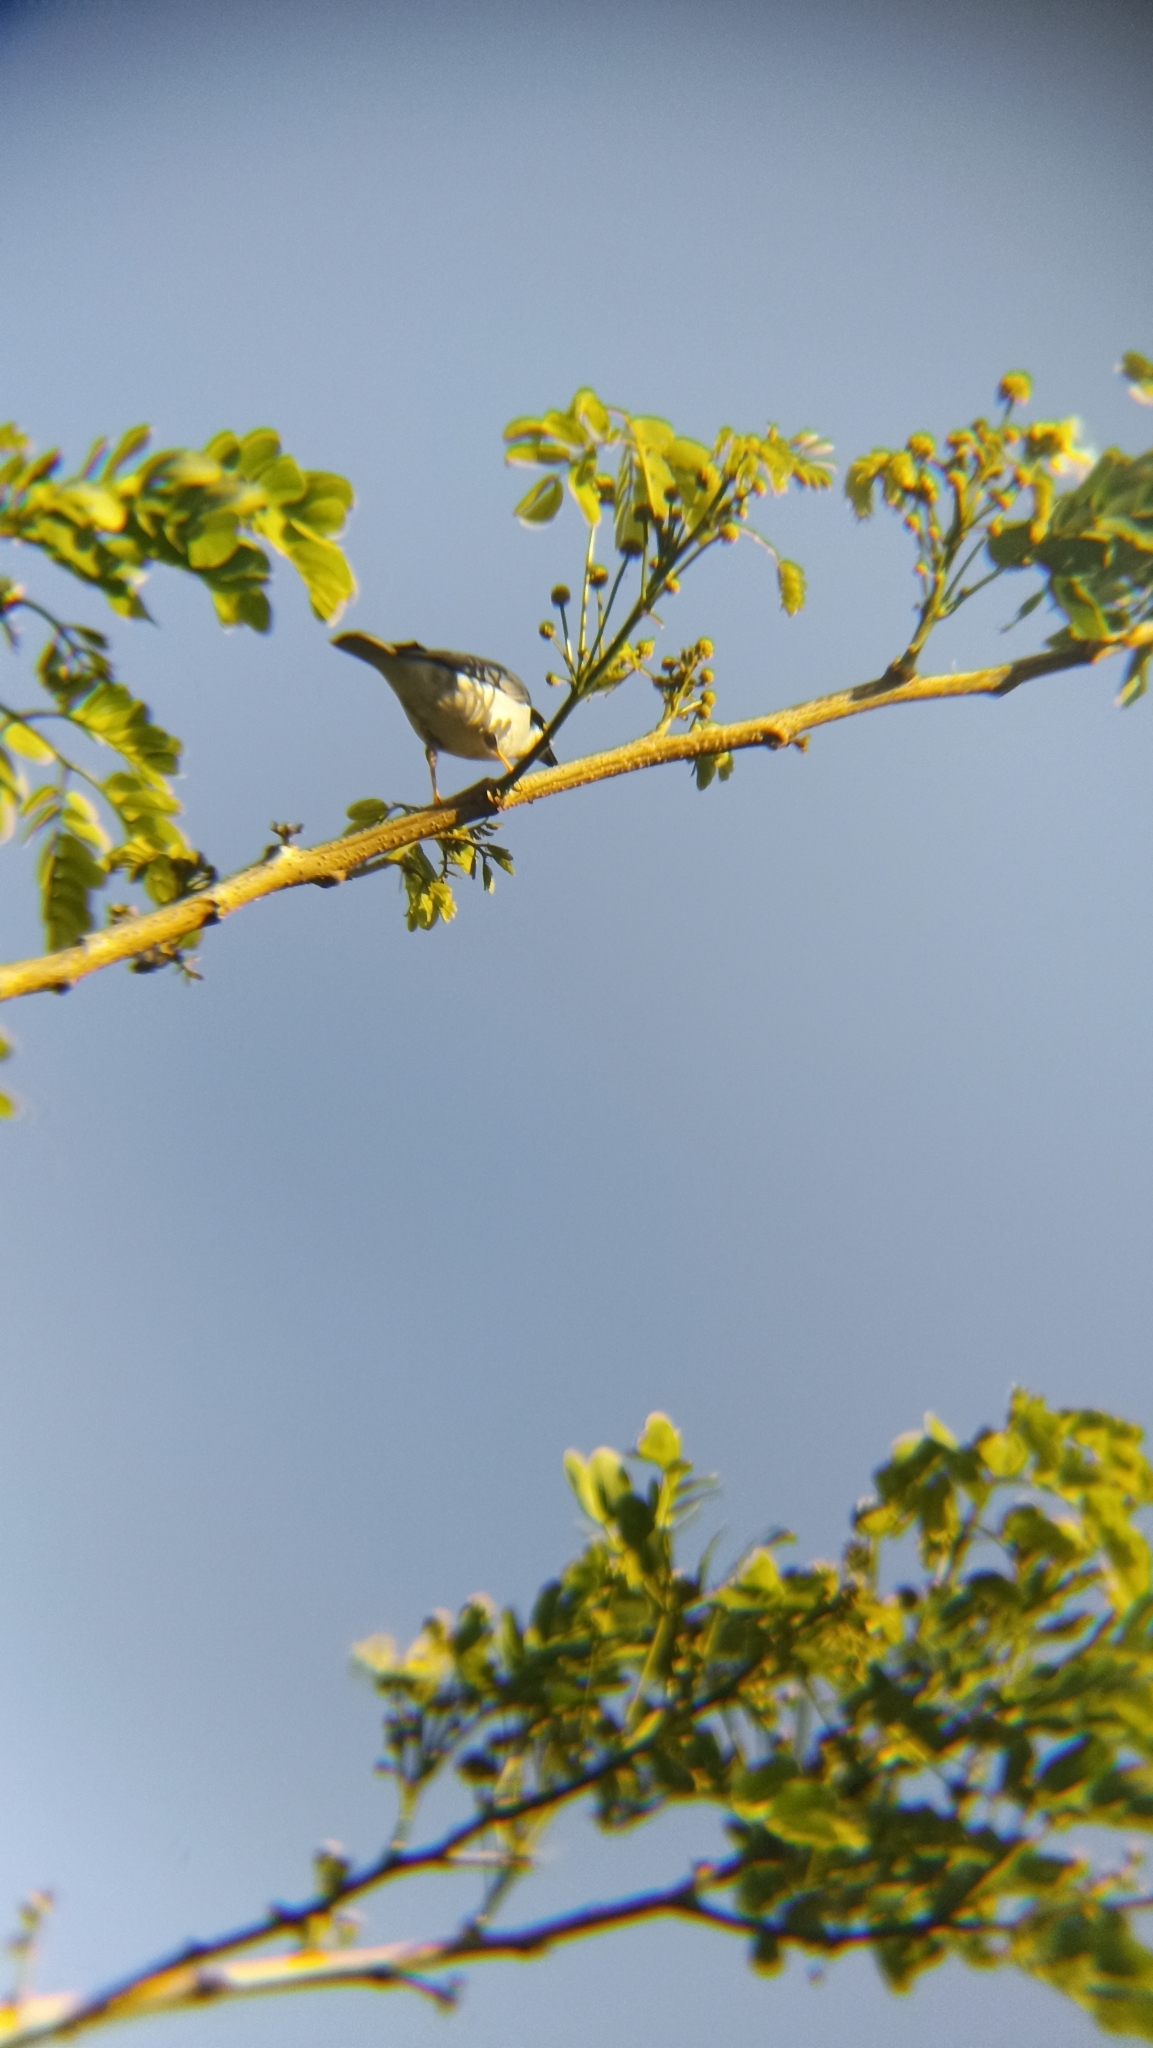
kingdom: Animalia
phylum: Chordata
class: Aves
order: Passeriformes
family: Thraupidae
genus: Nemosia
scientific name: Nemosia pileata
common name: Hooded tanager
